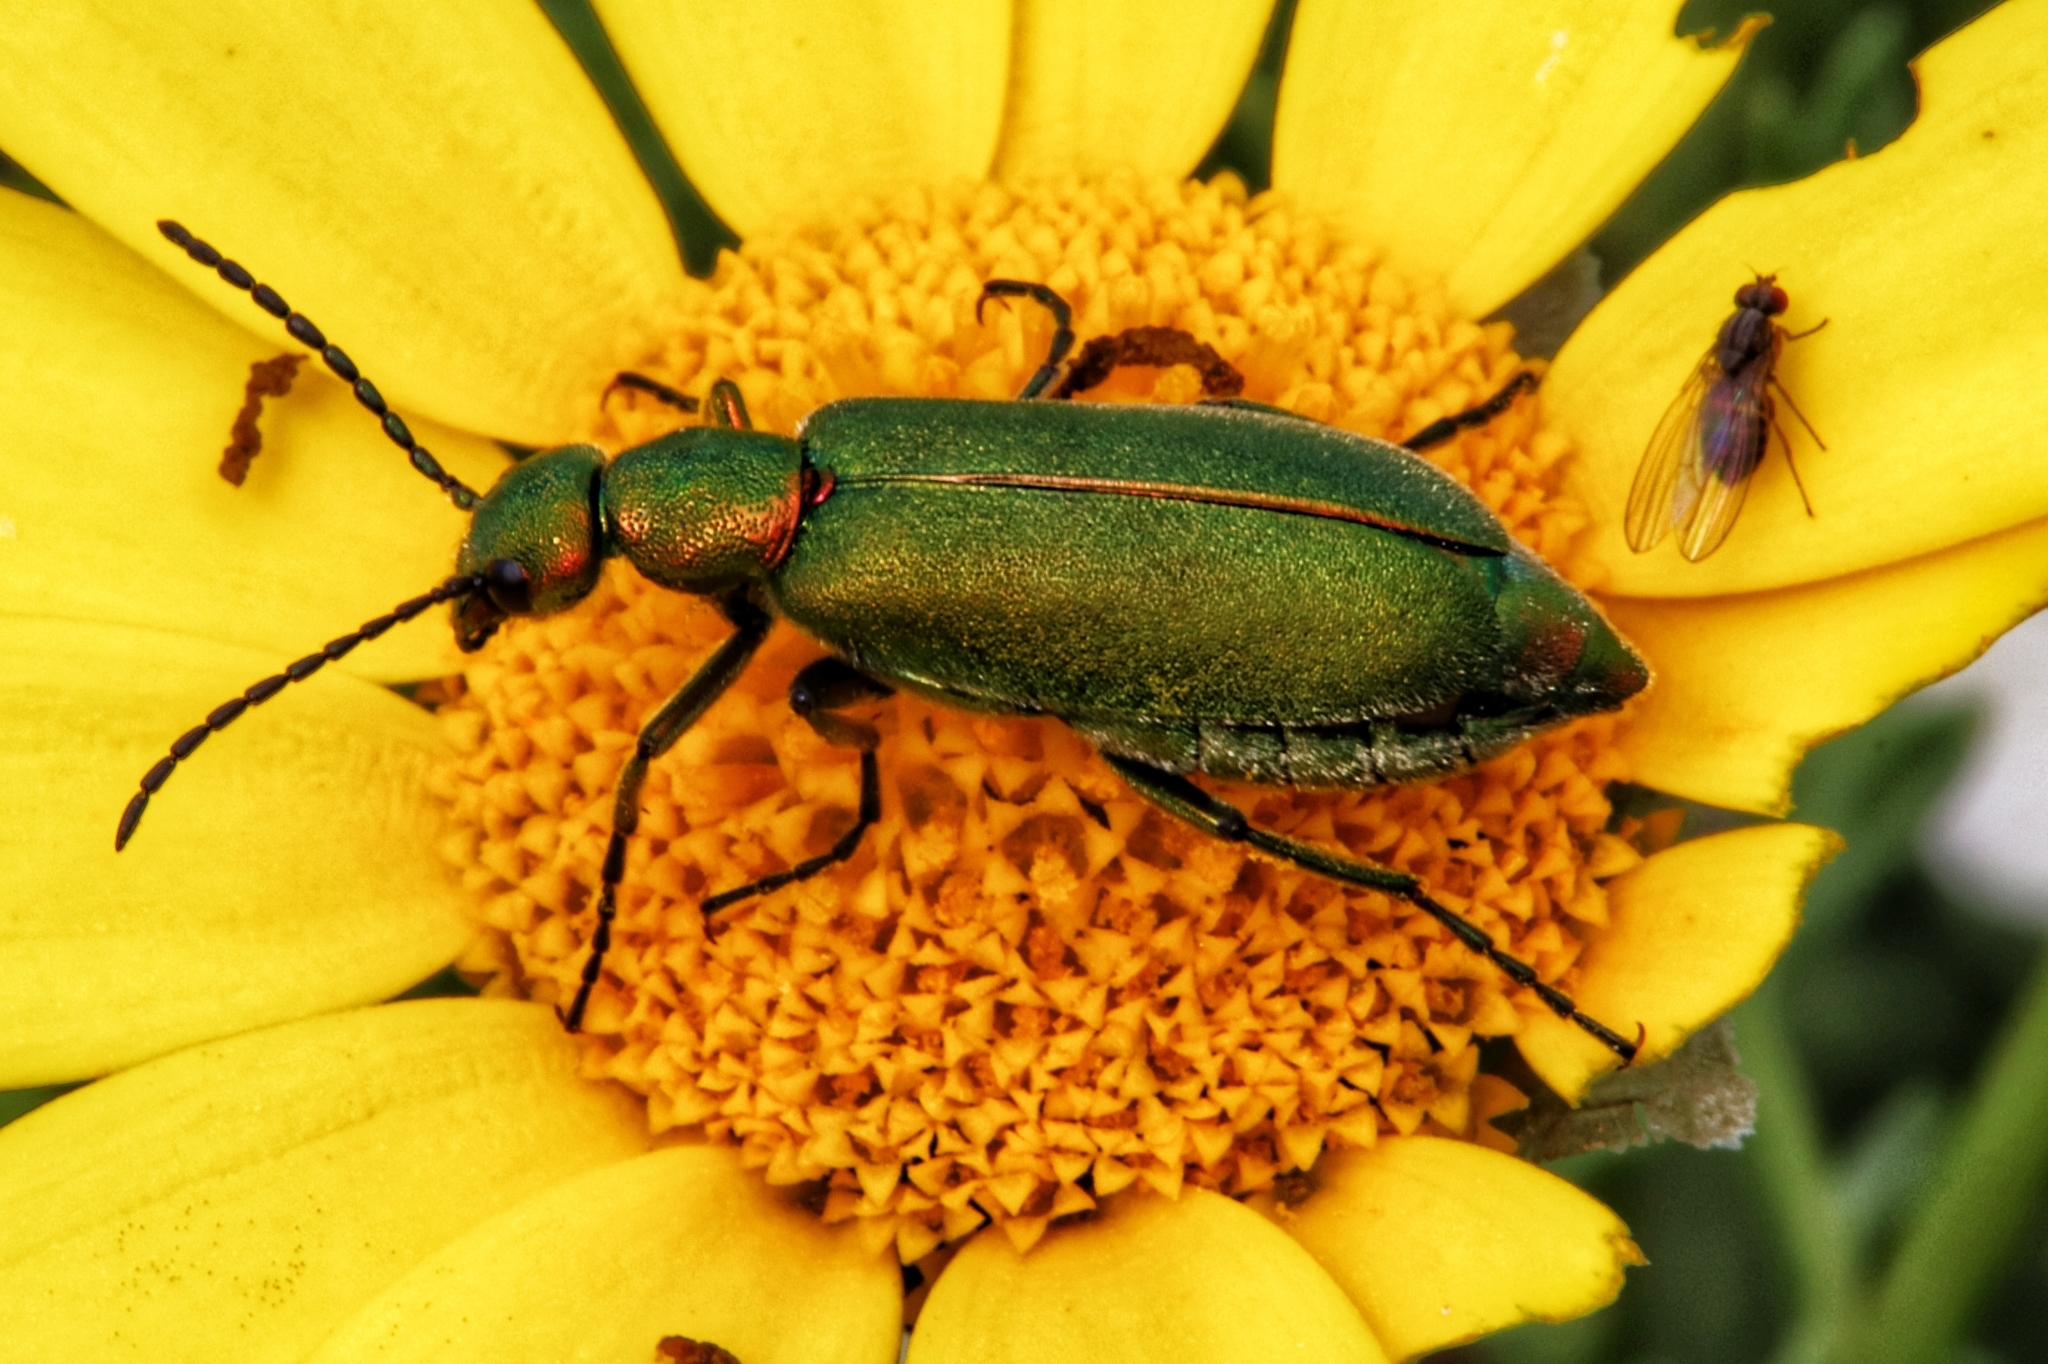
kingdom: Animalia
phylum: Arthropoda
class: Insecta
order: Coleoptera
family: Meloidae
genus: Lagorina
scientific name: Lagorina sericea
